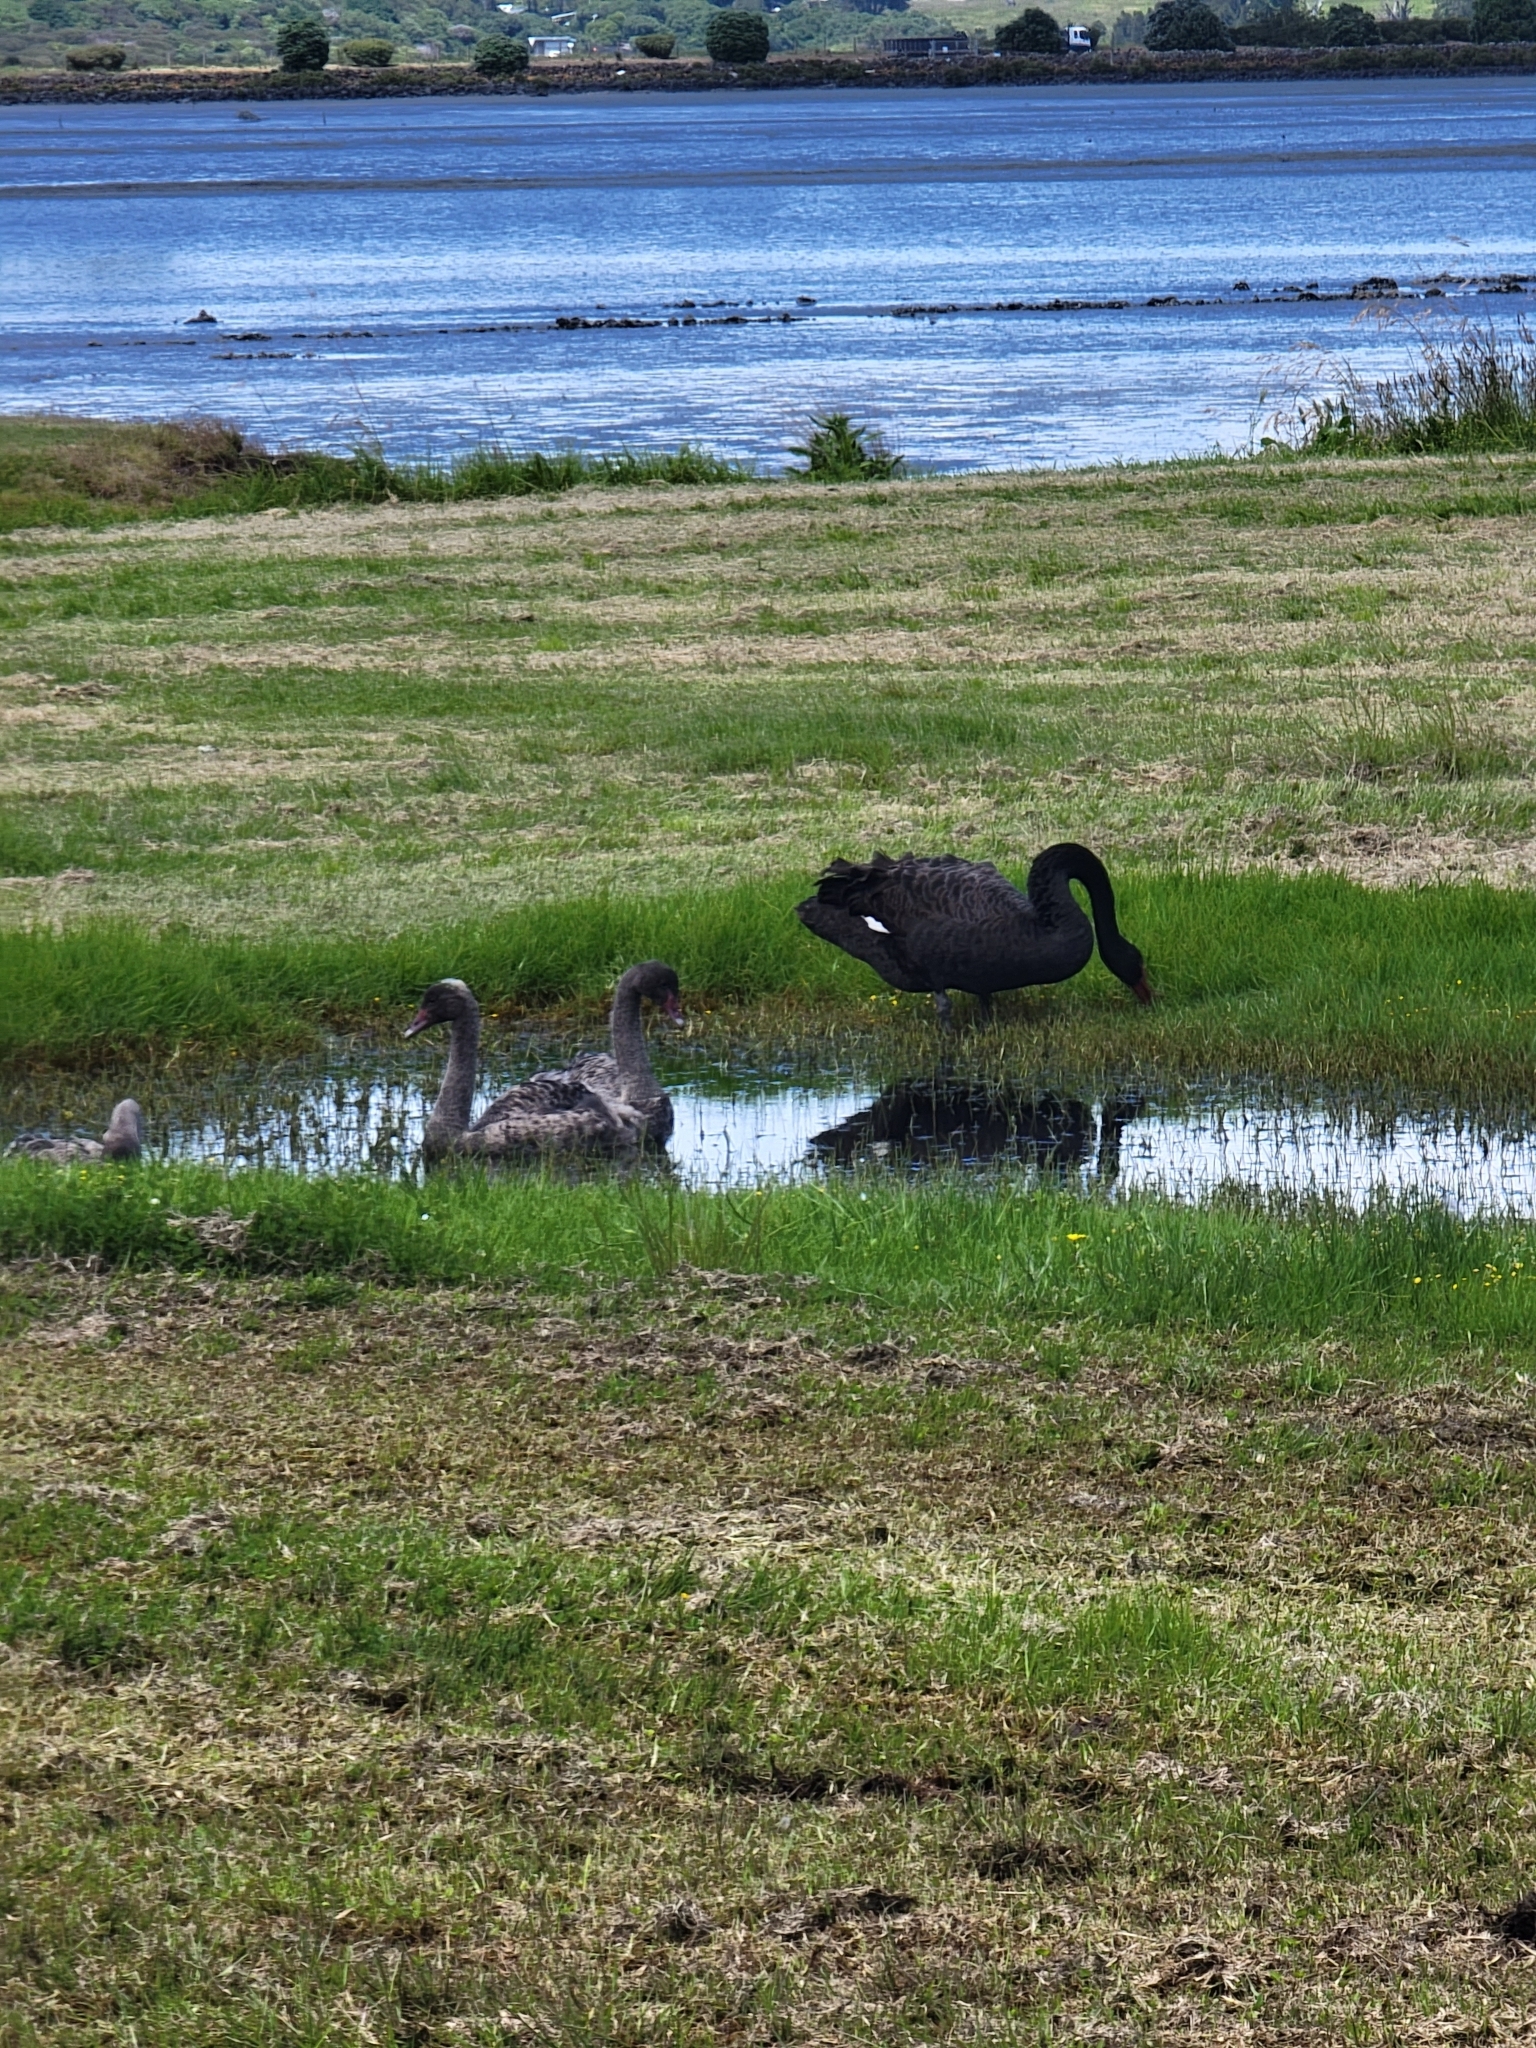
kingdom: Animalia
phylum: Chordata
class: Aves
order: Anseriformes
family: Anatidae
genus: Cygnus
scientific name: Cygnus atratus
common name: Black swan
